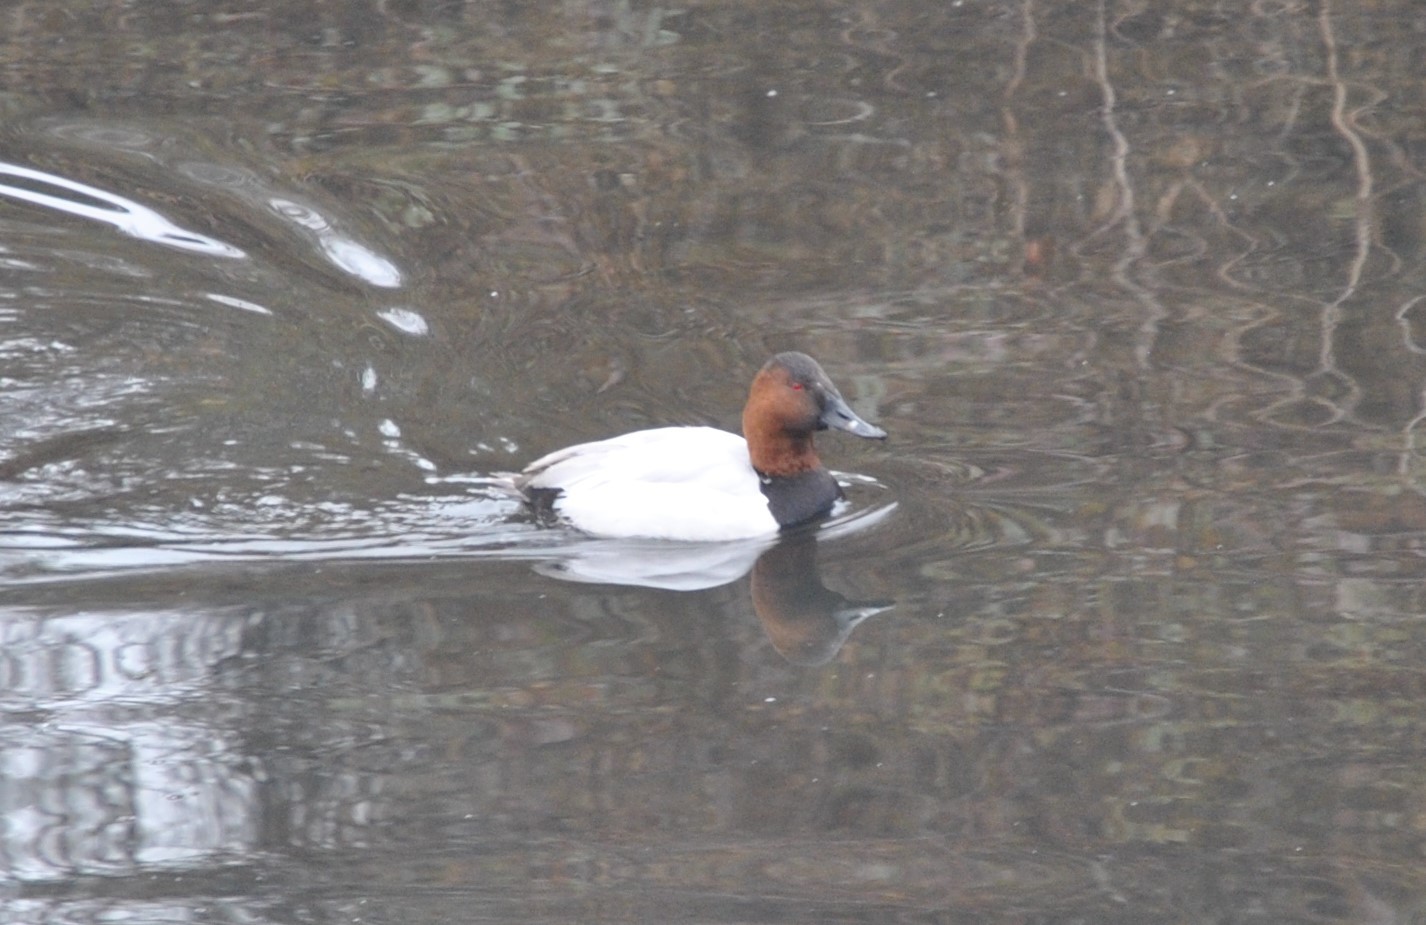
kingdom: Animalia
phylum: Chordata
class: Aves
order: Anseriformes
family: Anatidae
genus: Aythya
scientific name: Aythya valisineria
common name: Canvasback
